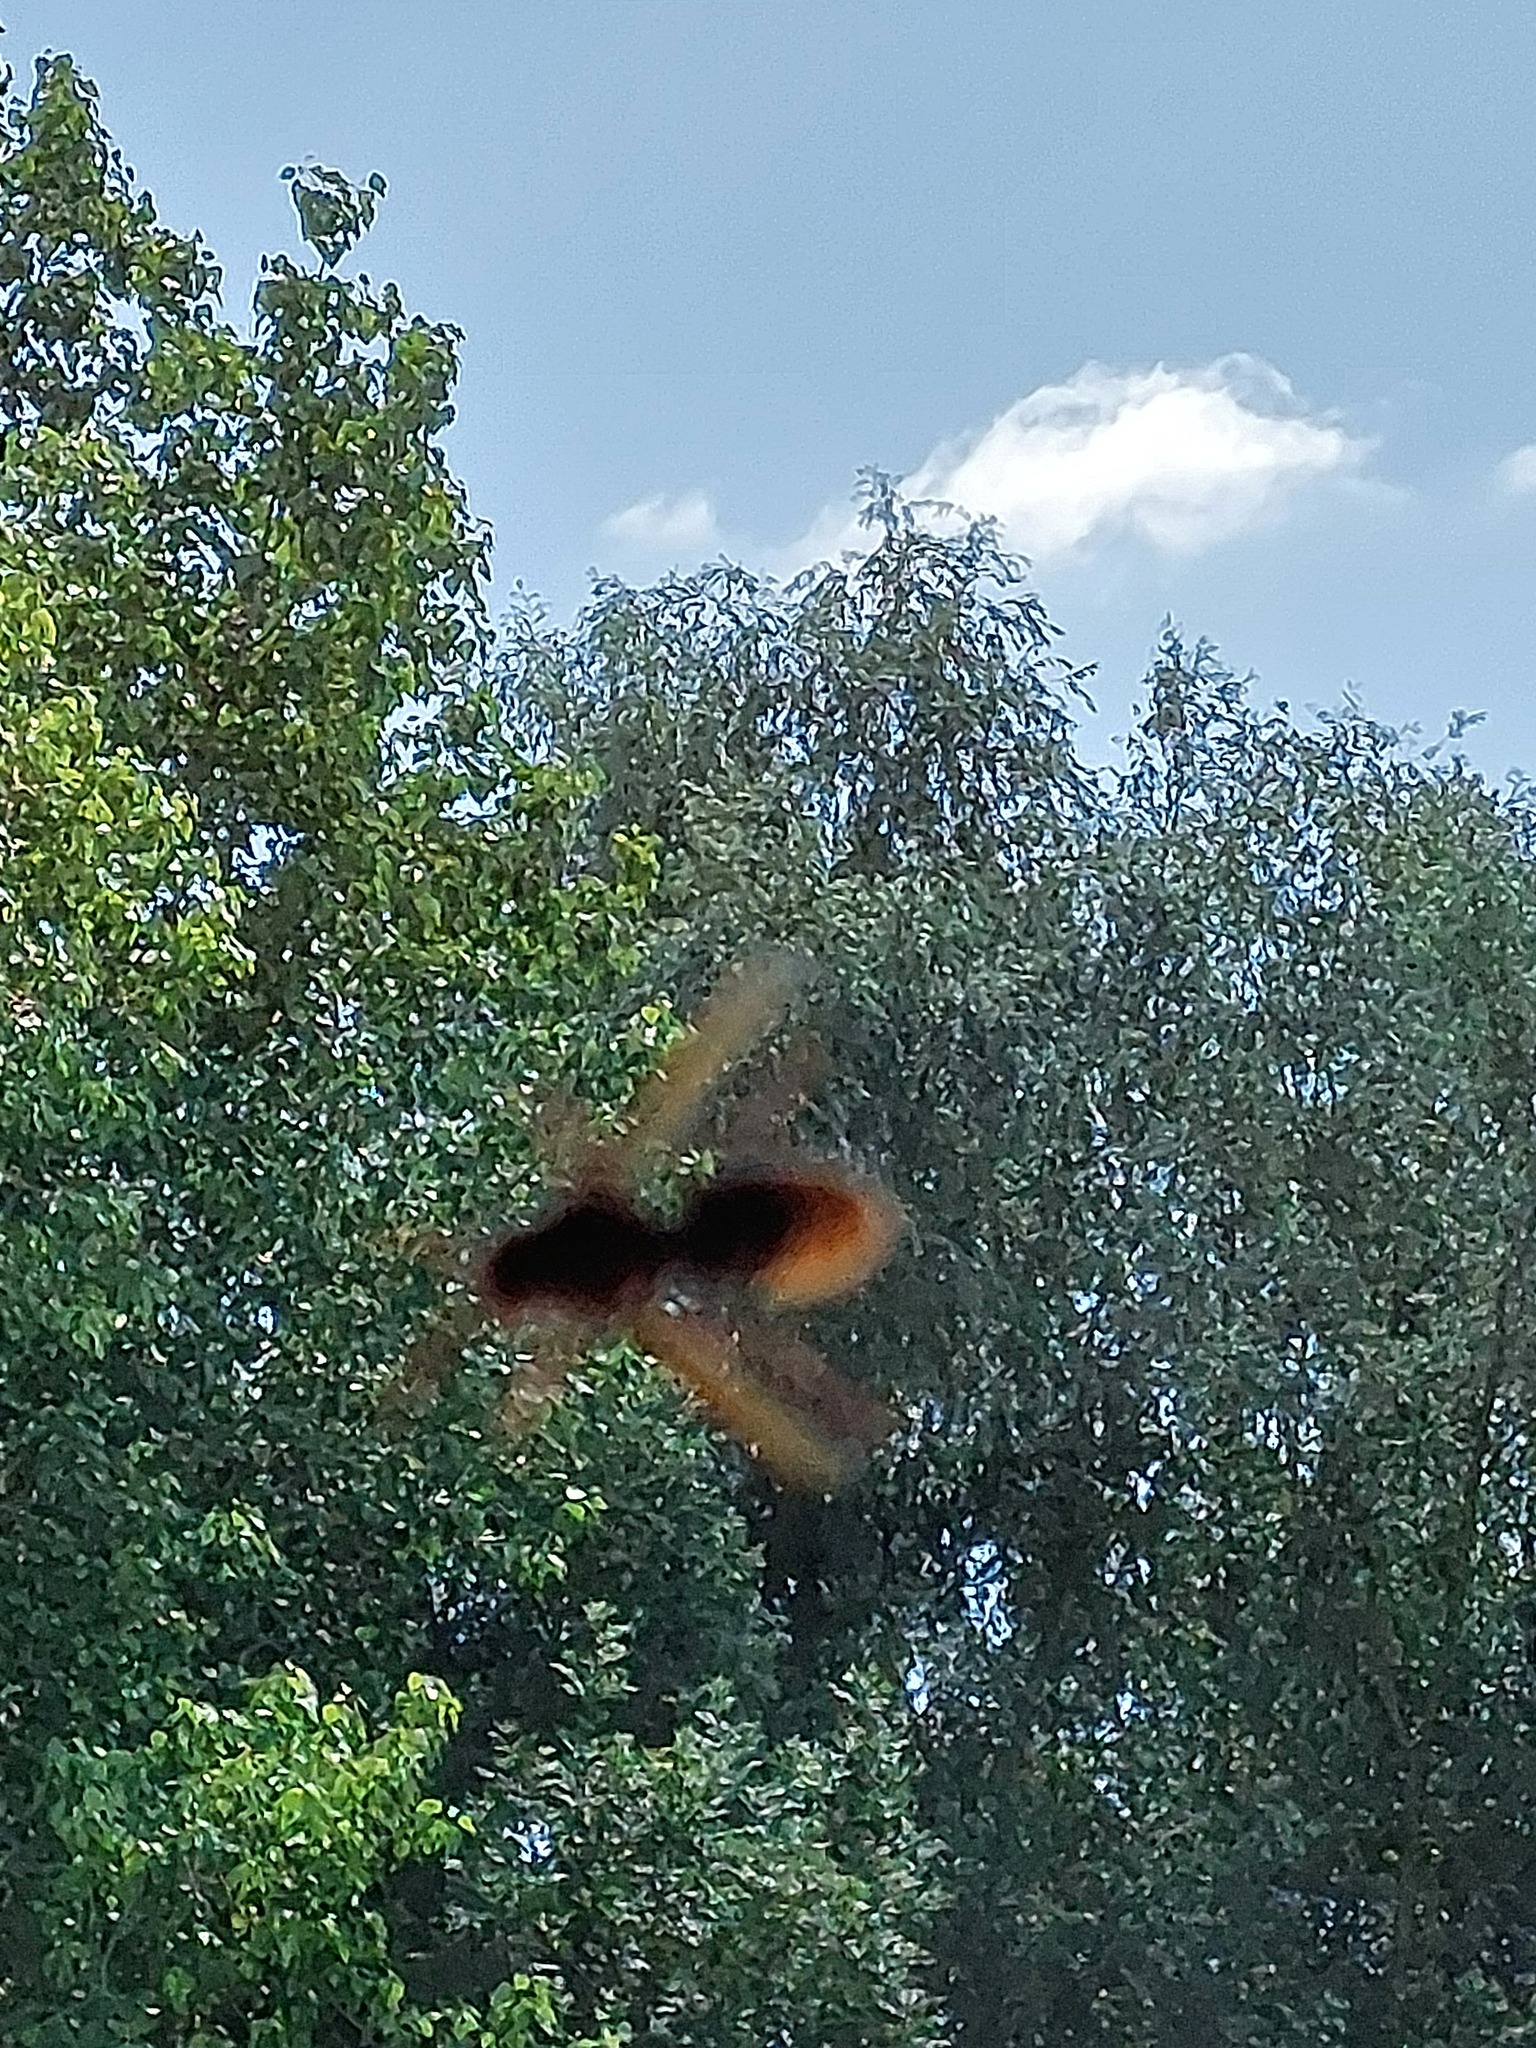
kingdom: Animalia
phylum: Arthropoda
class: Insecta
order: Hymenoptera
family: Vespidae
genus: Vespa
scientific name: Vespa crabro
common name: Hornet
